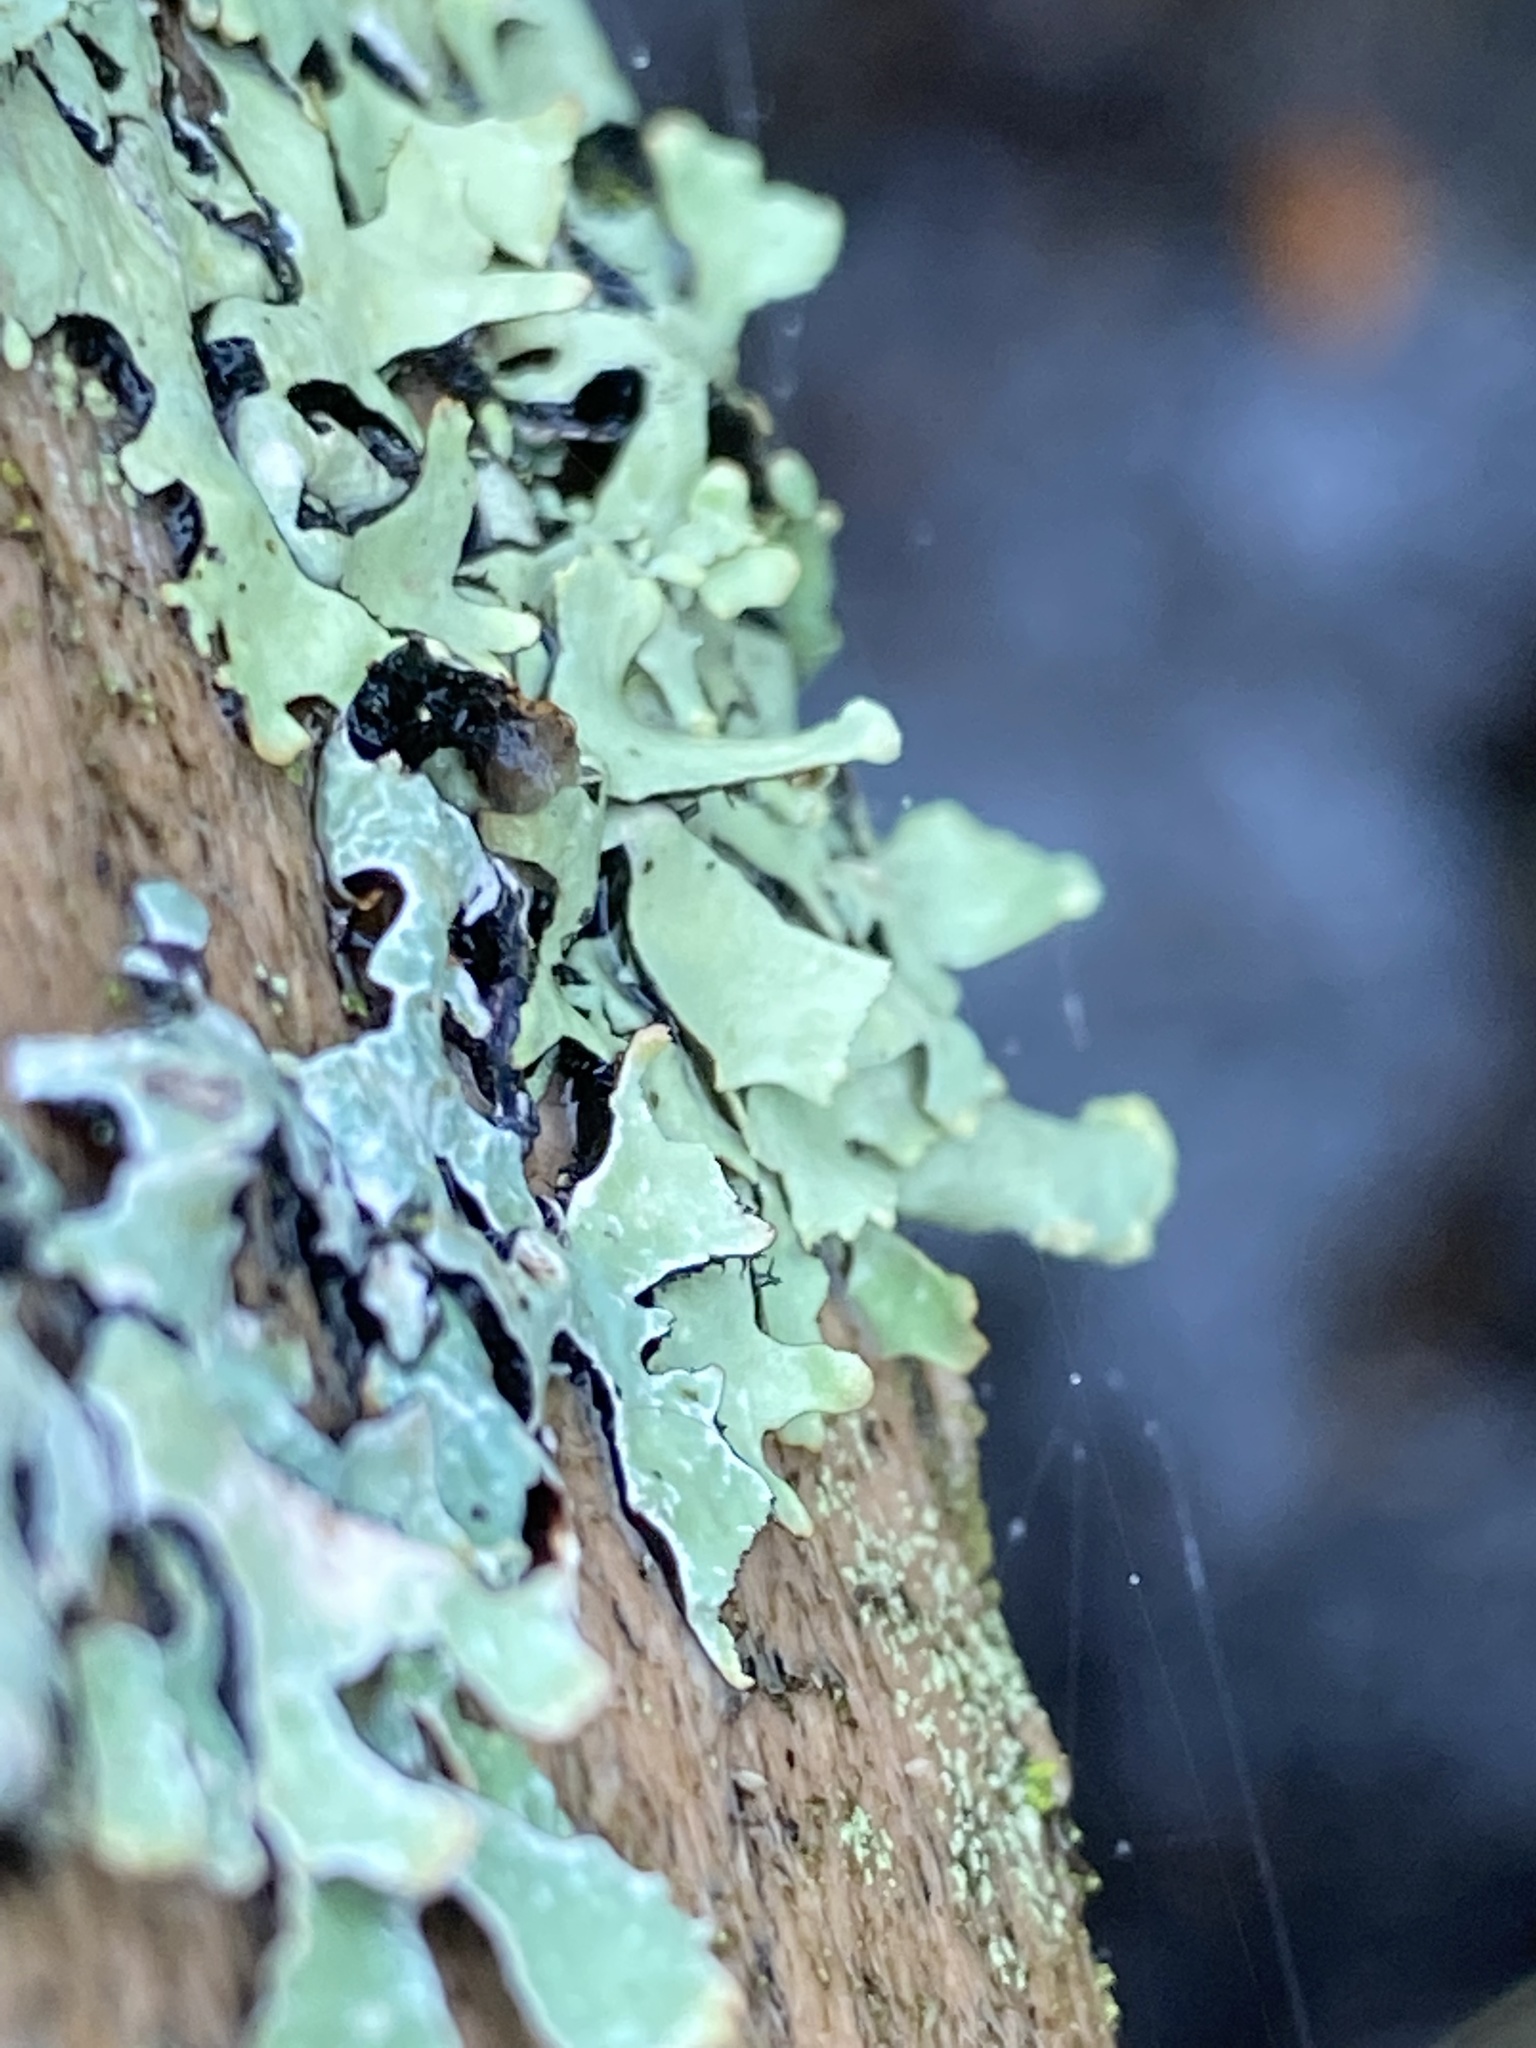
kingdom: Fungi
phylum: Ascomycota
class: Lecanoromycetes
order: Lecanorales
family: Parmeliaceae
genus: Hypotrachyna
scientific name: Hypotrachyna sinuosa
